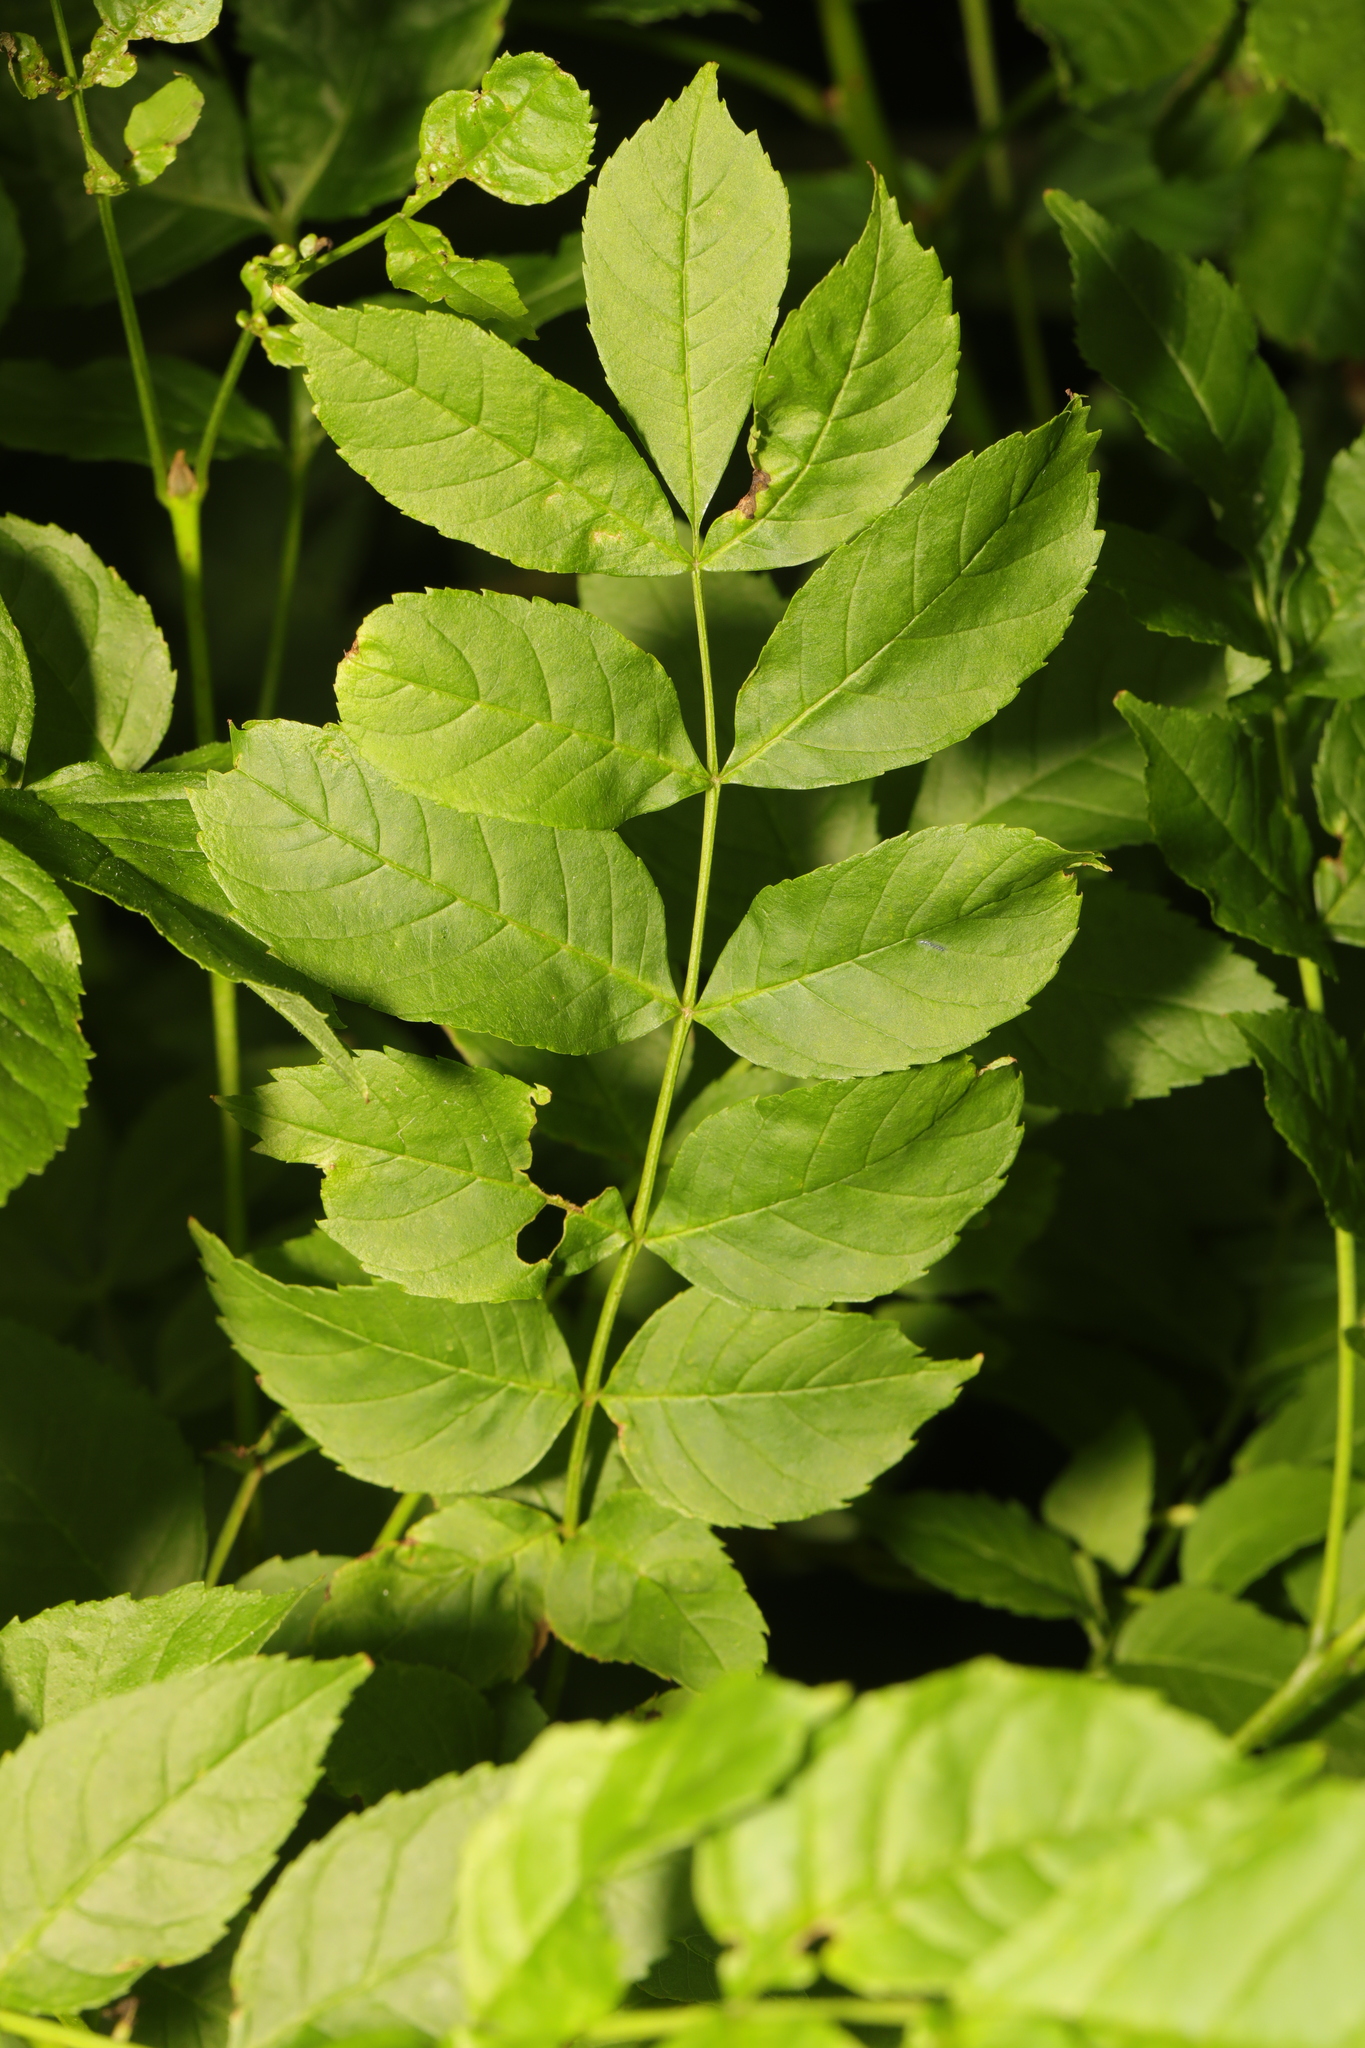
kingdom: Plantae
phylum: Tracheophyta
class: Magnoliopsida
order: Lamiales
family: Oleaceae
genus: Fraxinus
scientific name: Fraxinus excelsior
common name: European ash
